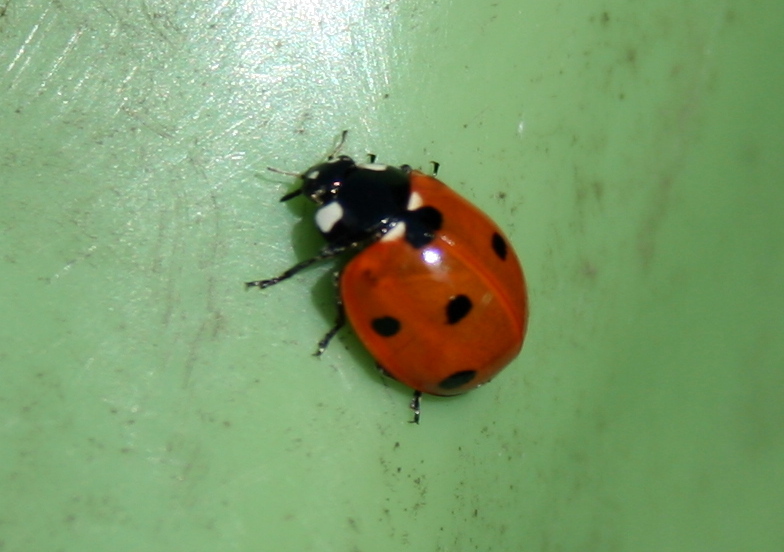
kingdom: Animalia
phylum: Arthropoda
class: Insecta
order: Coleoptera
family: Coccinellidae
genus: Coccinella
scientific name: Coccinella septempunctata
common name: Sevenspotted lady beetle
